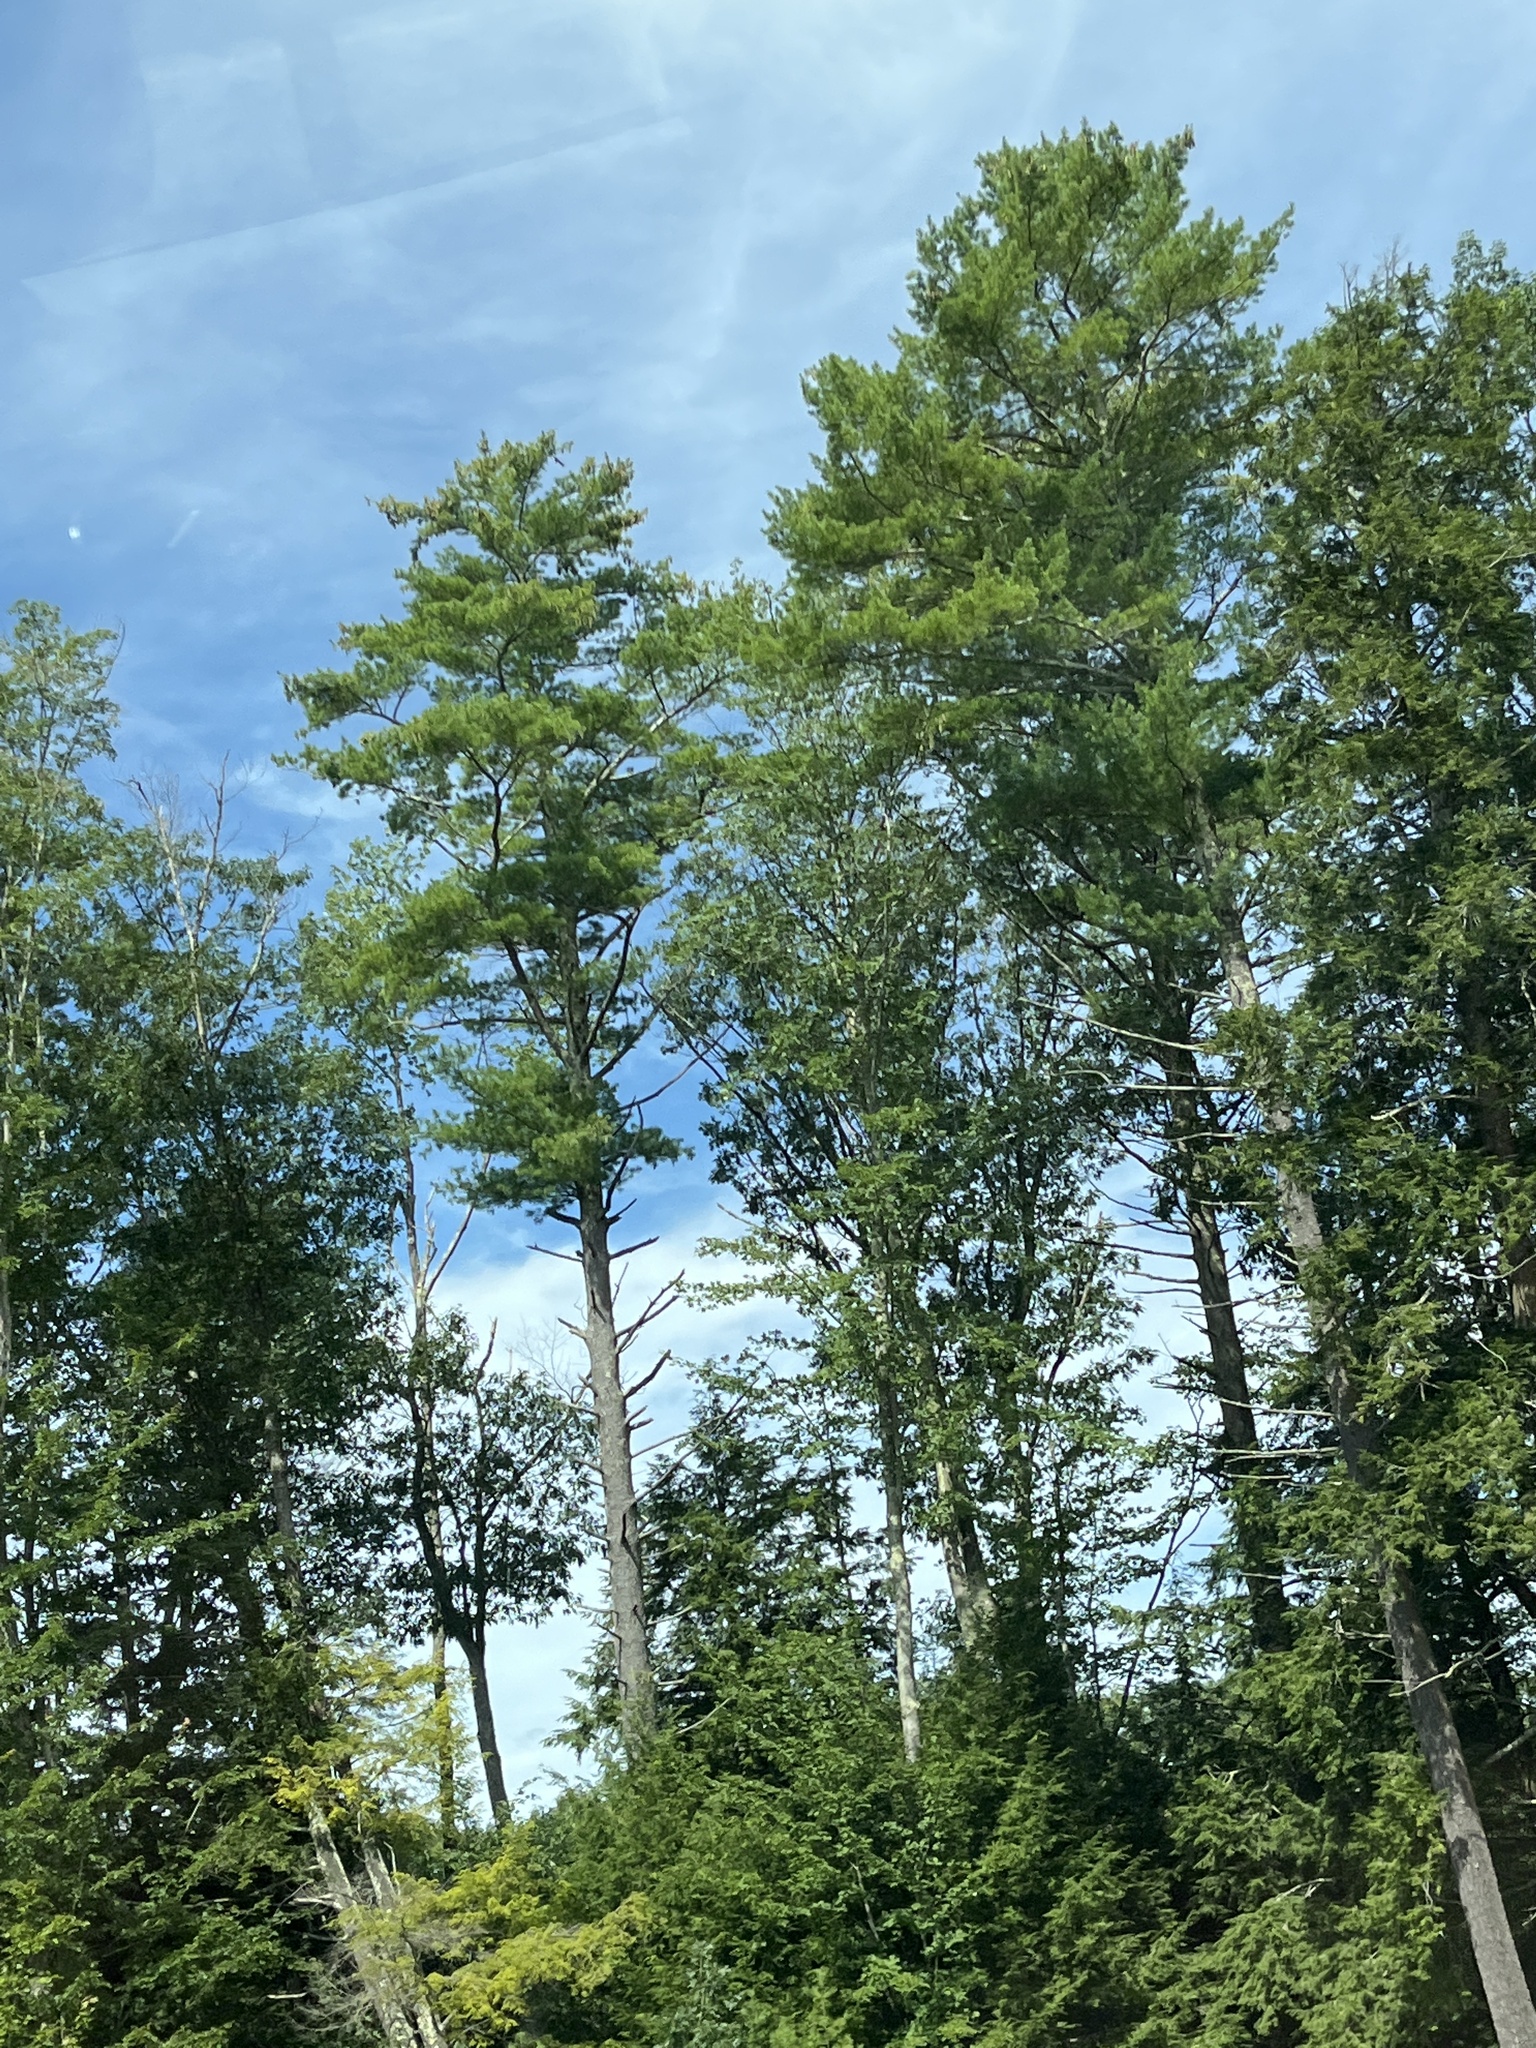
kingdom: Plantae
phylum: Tracheophyta
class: Pinopsida
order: Pinales
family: Pinaceae
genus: Pinus
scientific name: Pinus strobus
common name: Weymouth pine
